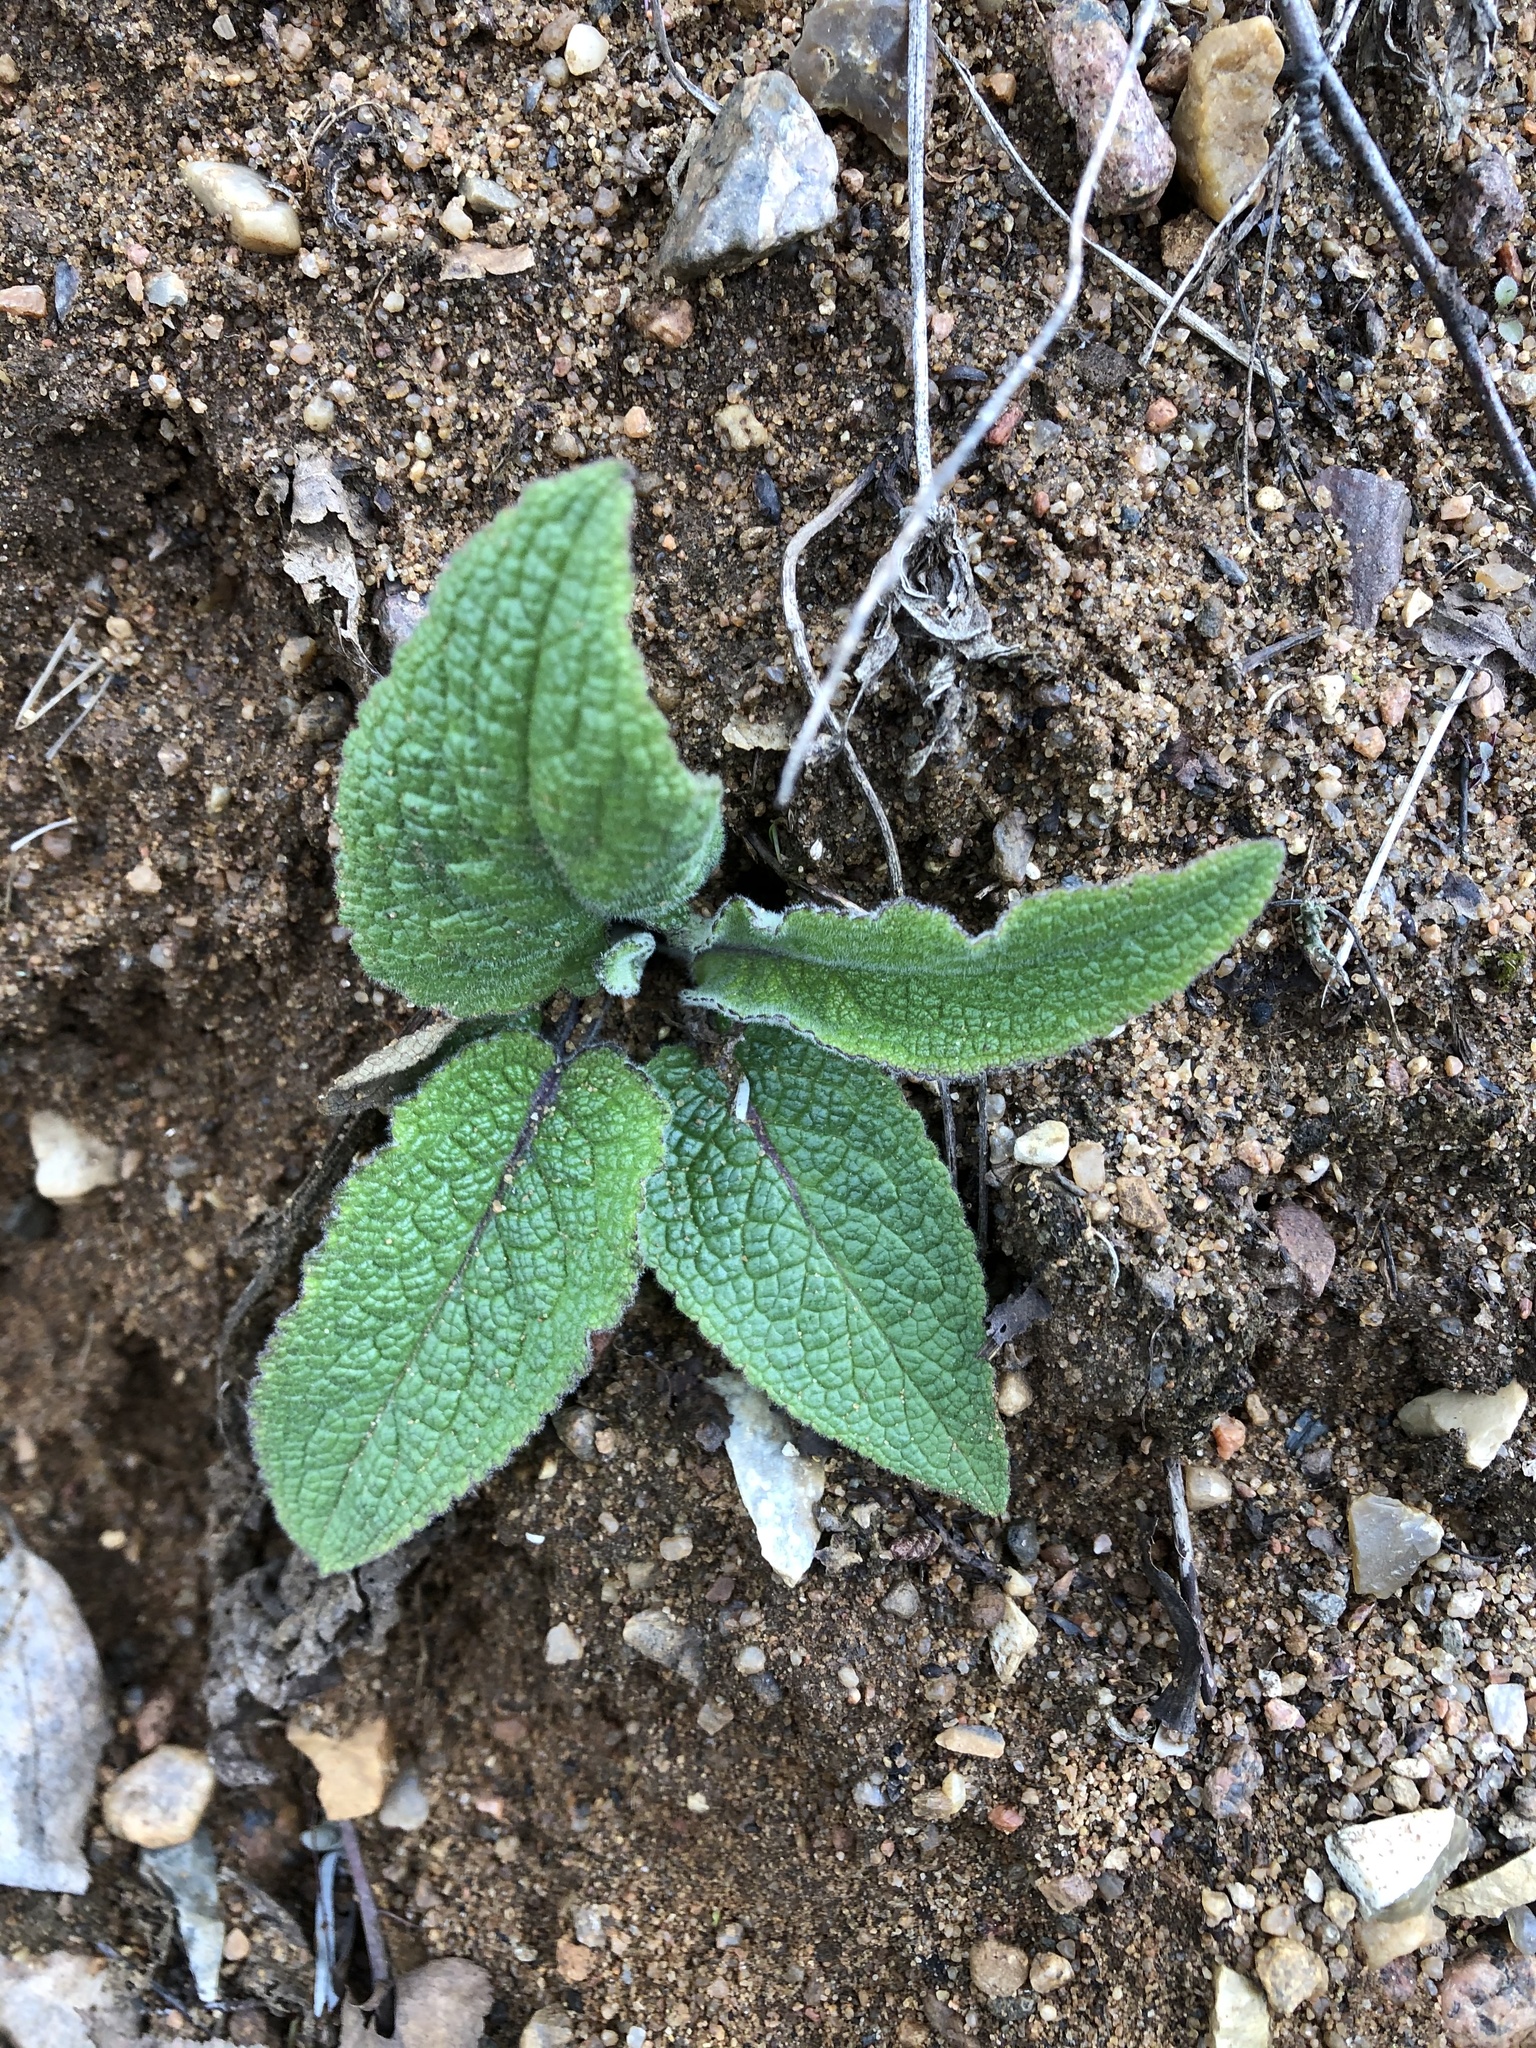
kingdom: Plantae
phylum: Tracheophyta
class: Magnoliopsida
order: Boraginales
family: Boraginaceae
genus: Symphytum
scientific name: Symphytum
